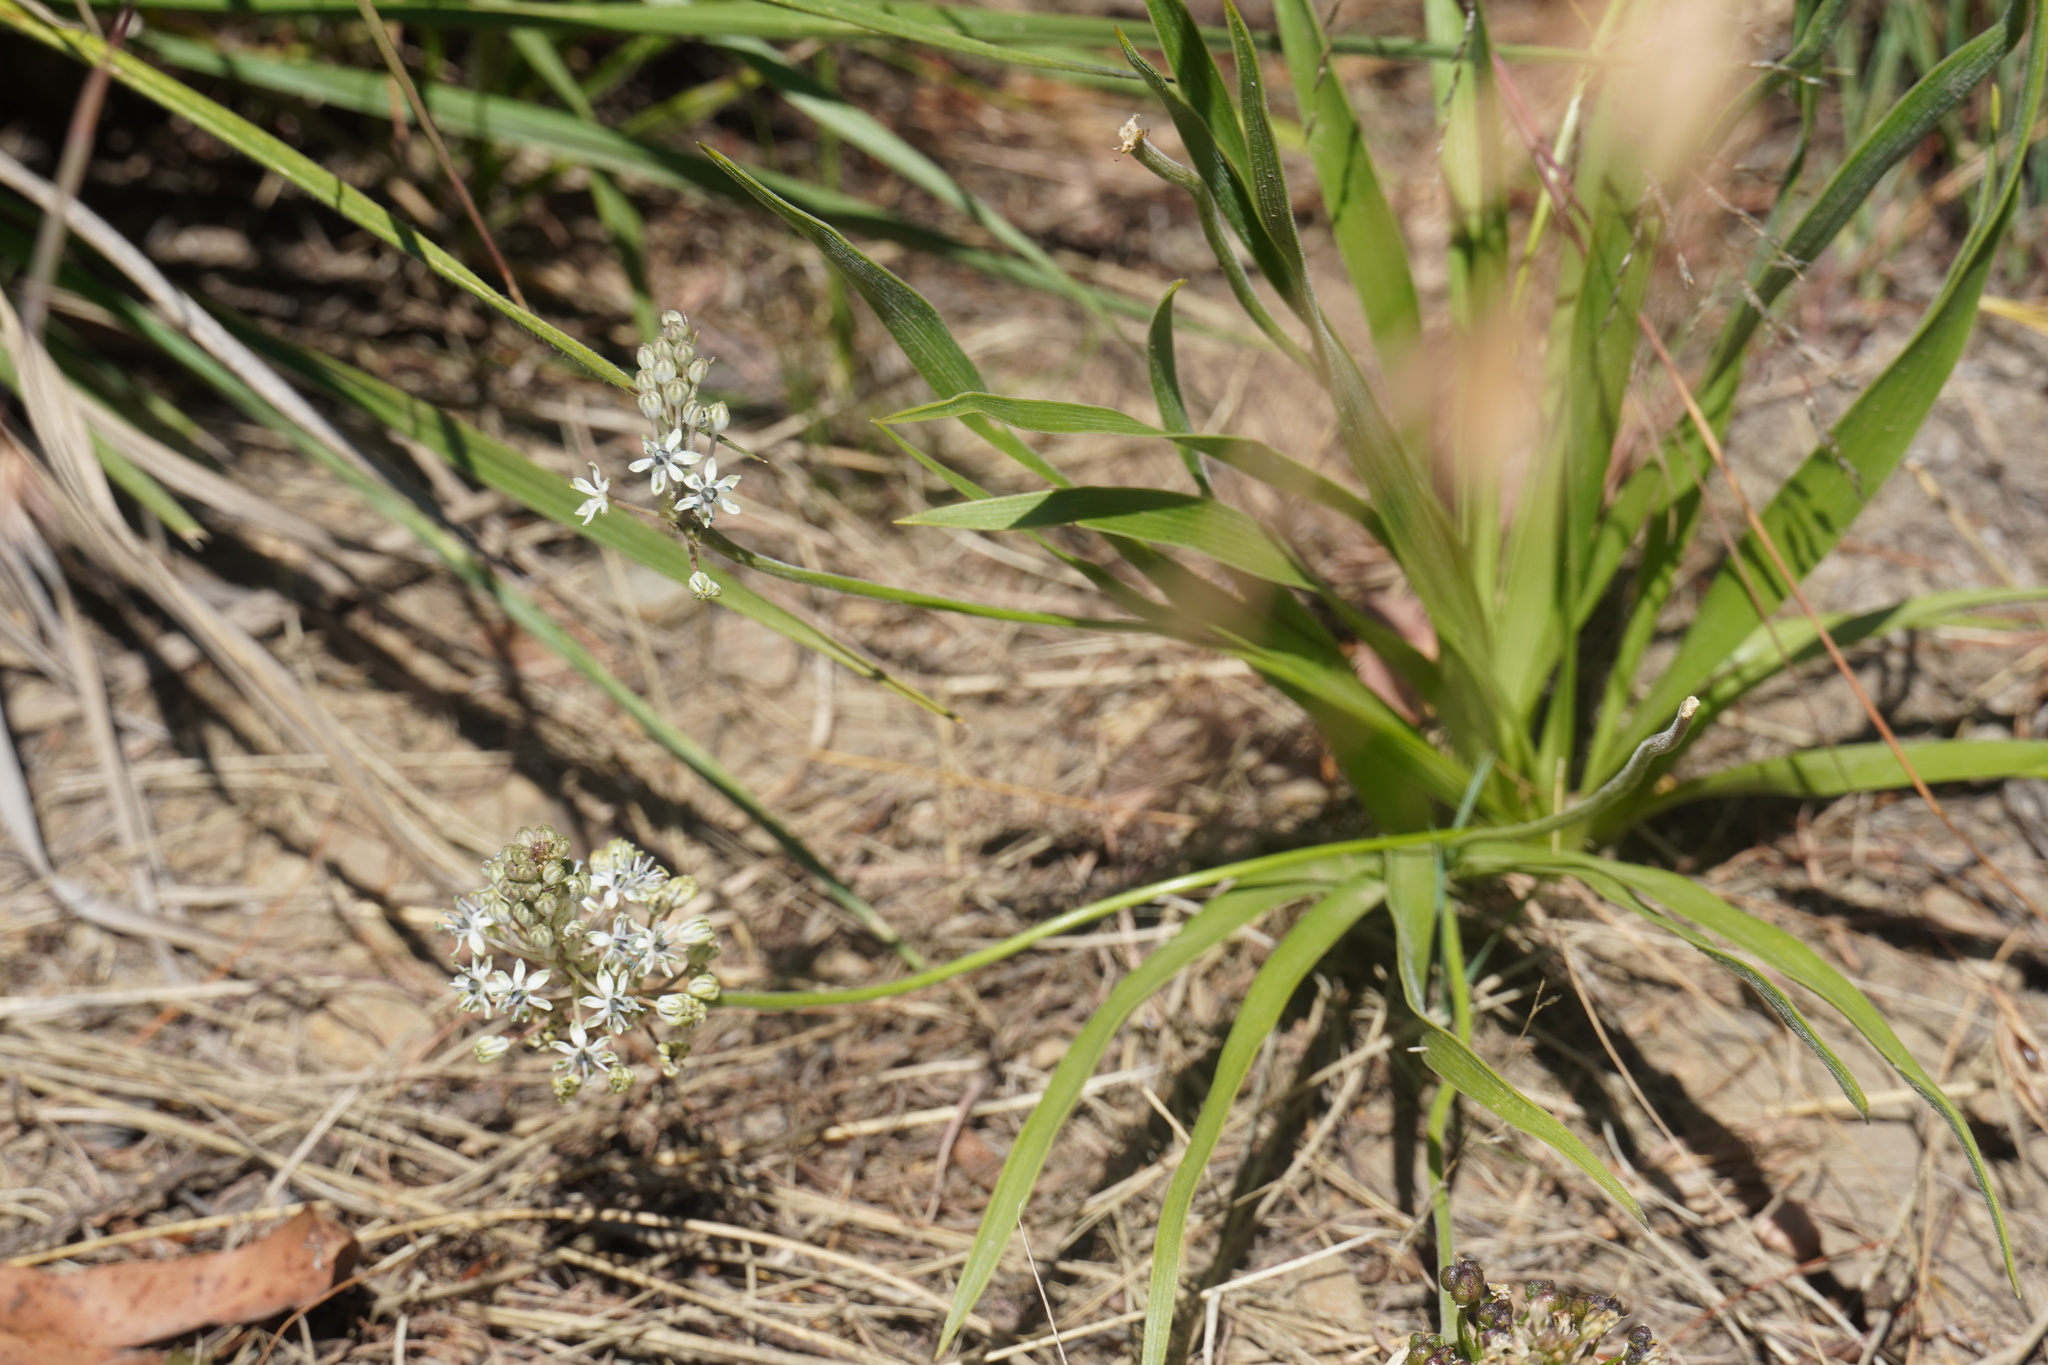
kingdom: Plantae
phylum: Tracheophyta
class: Liliopsida
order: Asparagales
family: Asparagaceae
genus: Schizocarphus
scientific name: Schizocarphus nervosus
